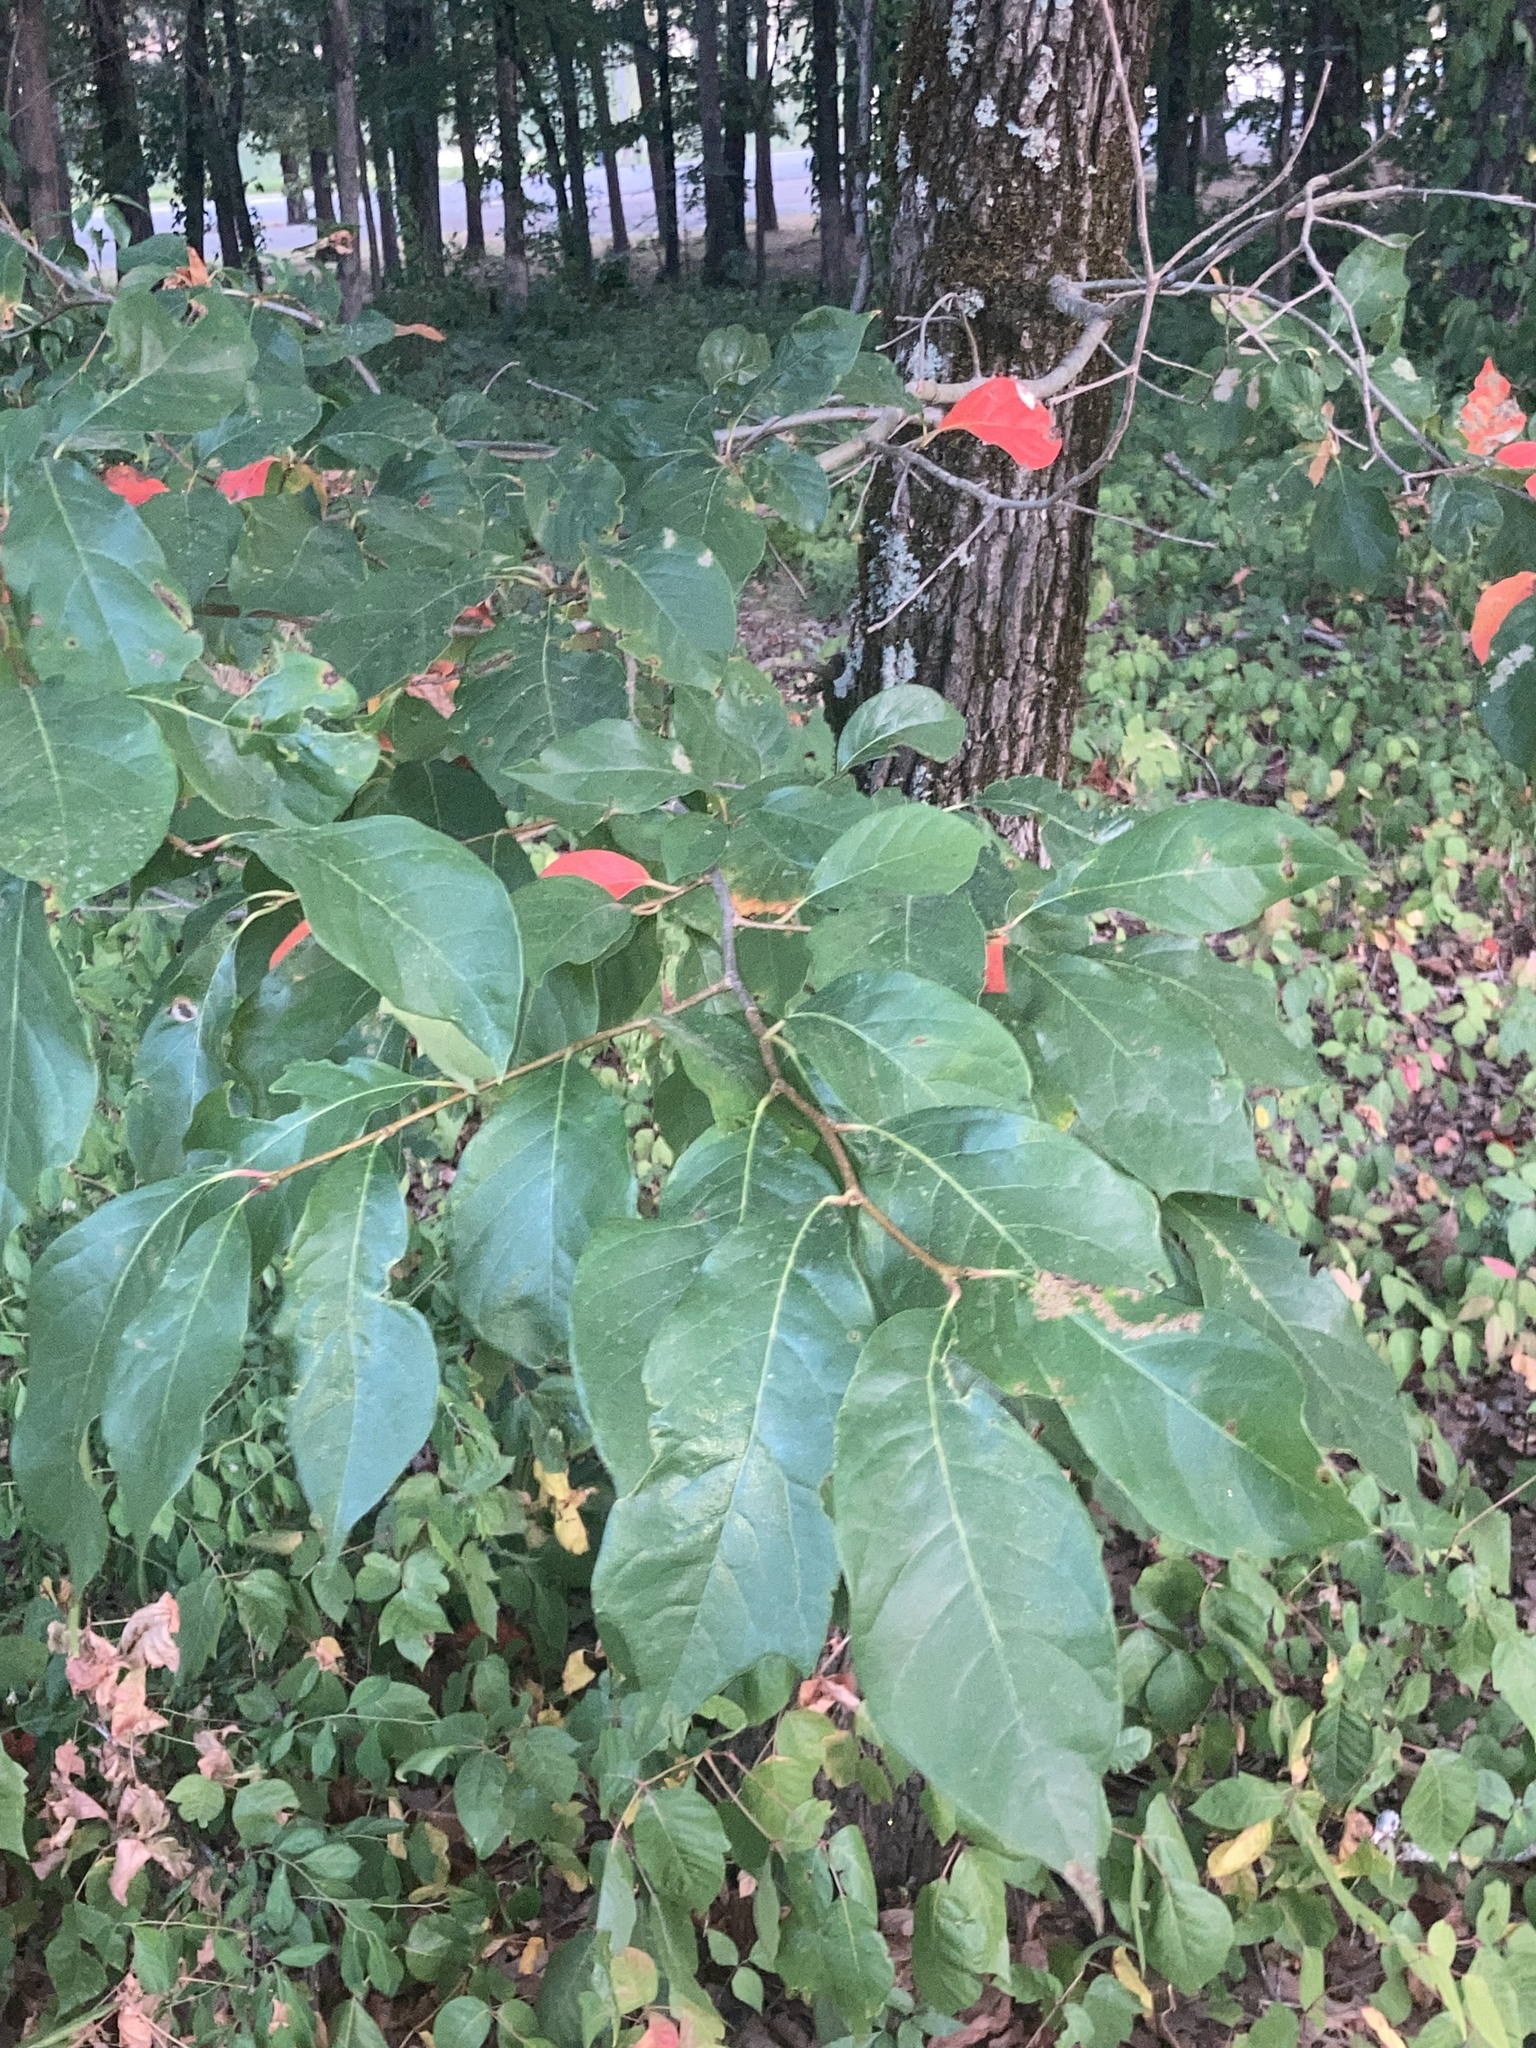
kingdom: Plantae
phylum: Tracheophyta
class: Magnoliopsida
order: Cornales
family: Nyssaceae
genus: Nyssa
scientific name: Nyssa sylvatica
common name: Black tupelo
